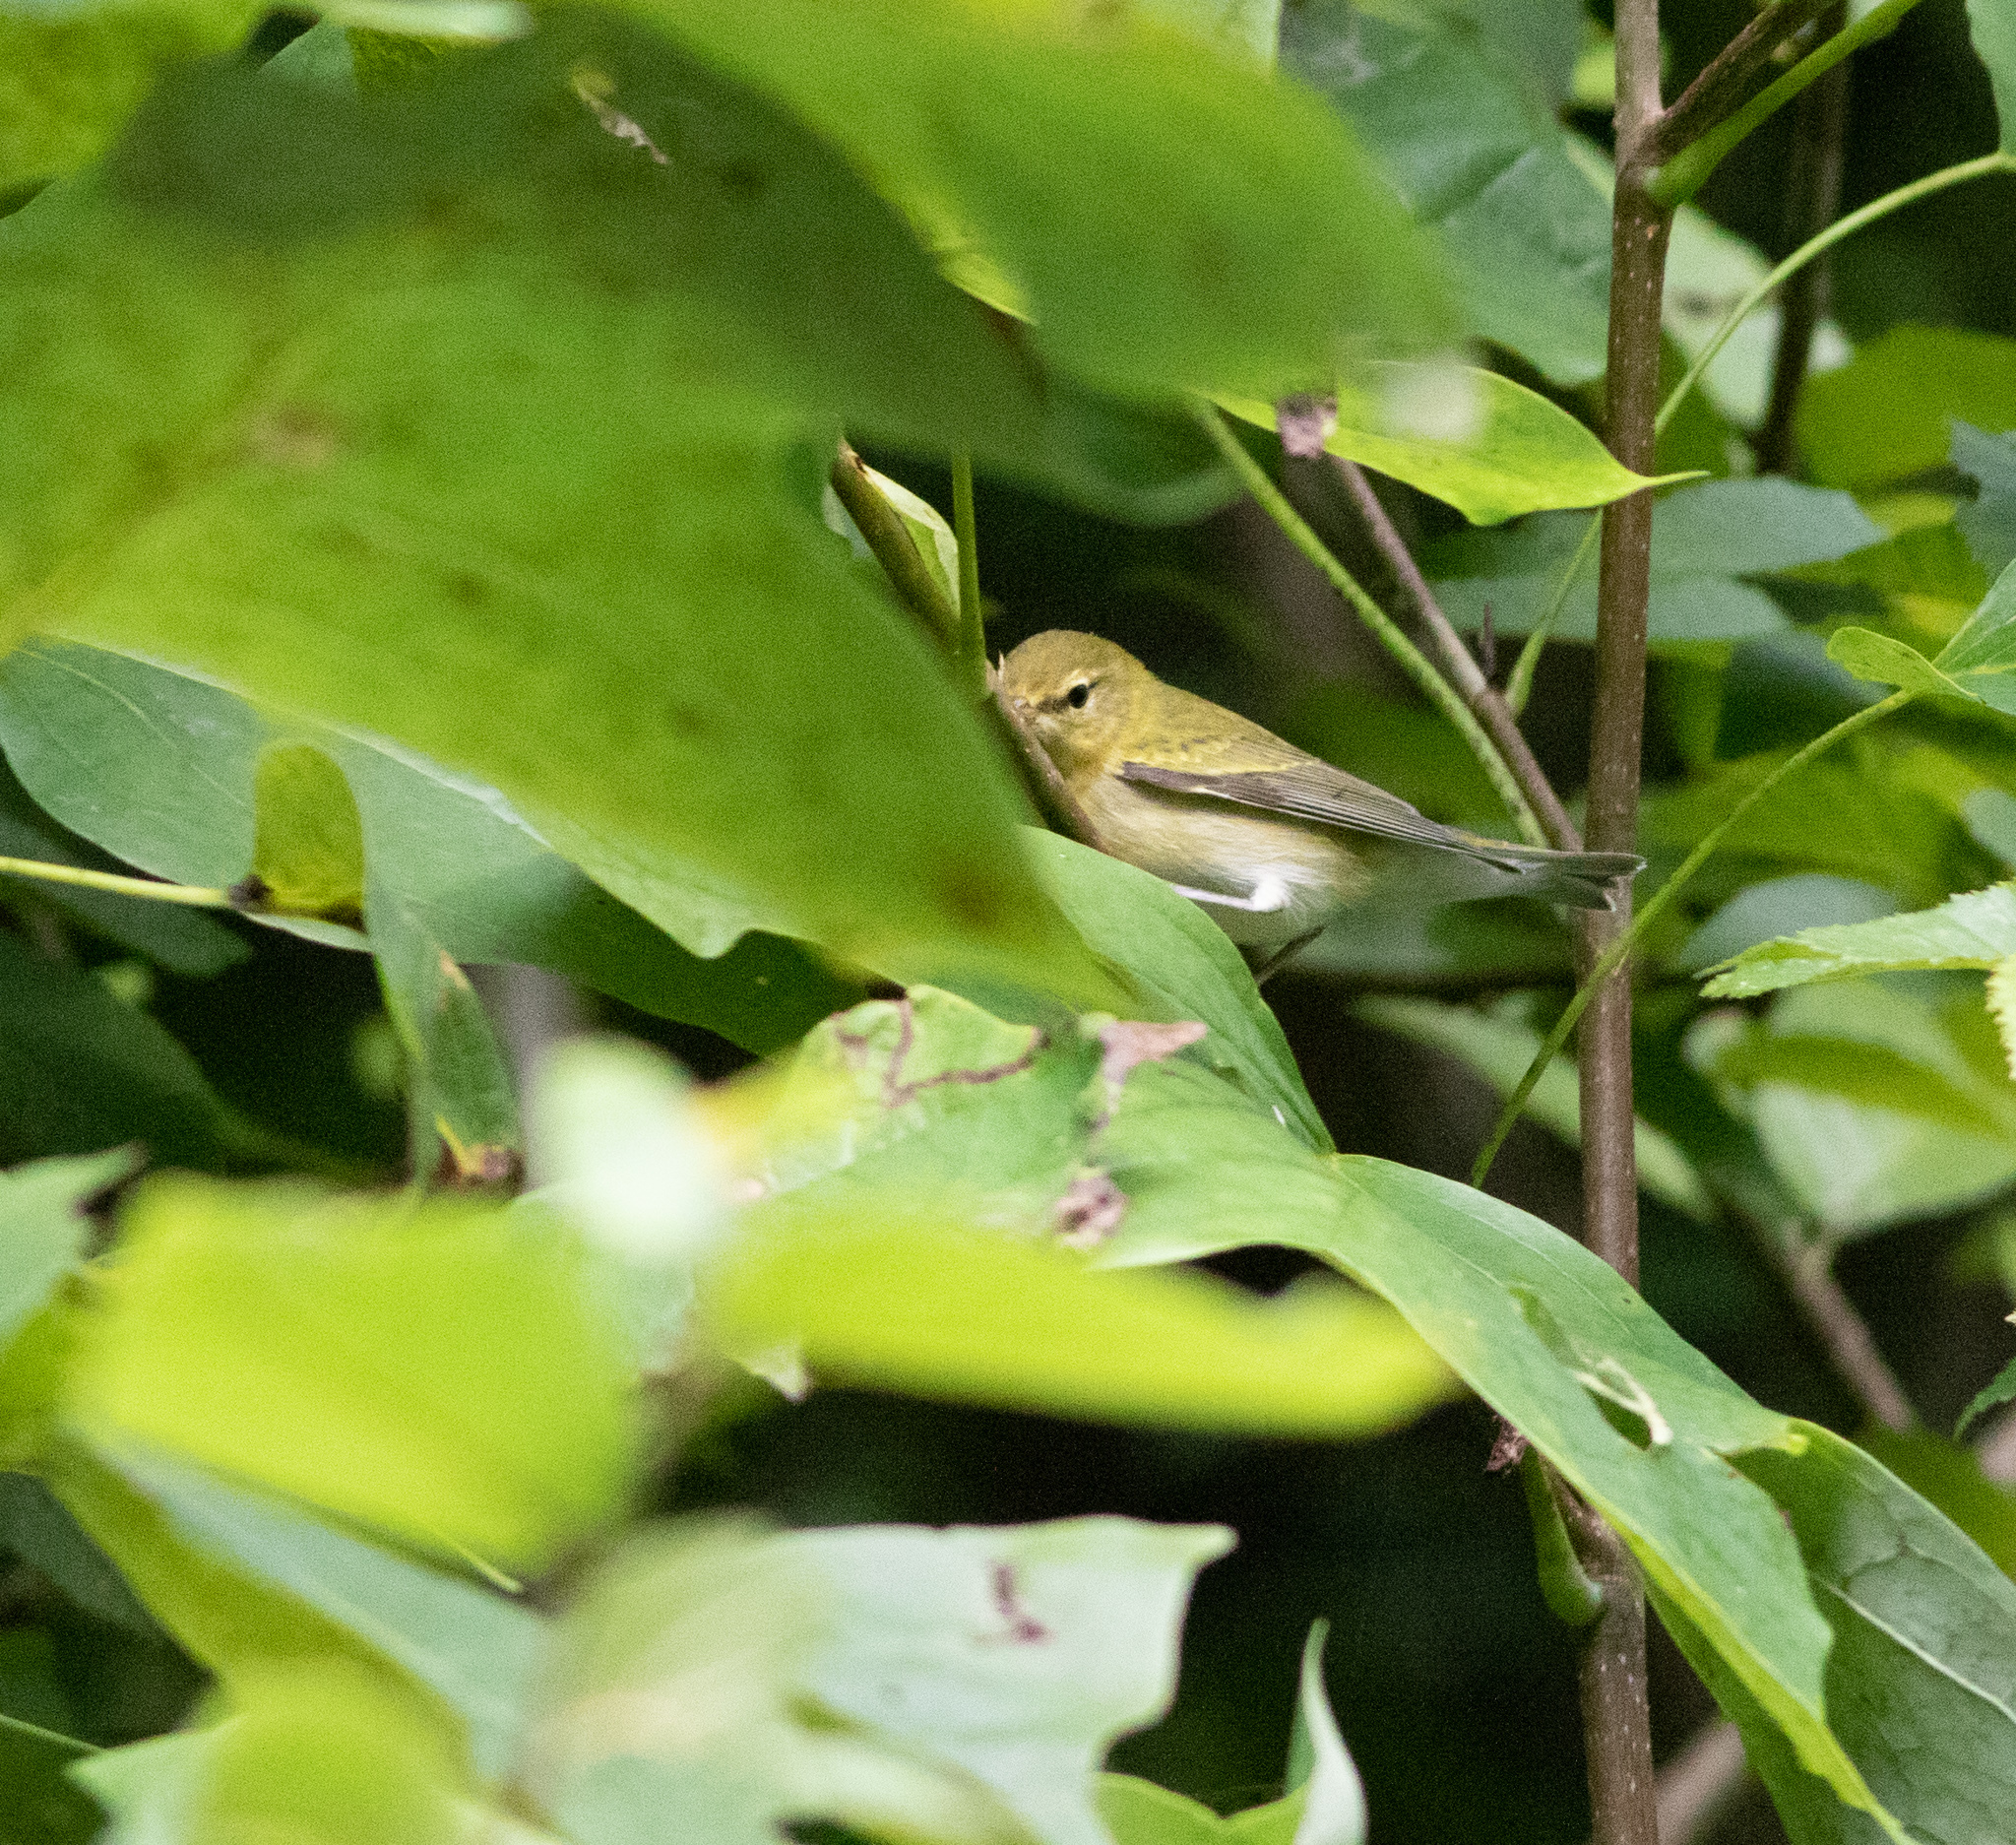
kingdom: Animalia
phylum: Chordata
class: Aves
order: Passeriformes
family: Parulidae
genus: Leiothlypis
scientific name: Leiothlypis peregrina
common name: Tennessee warbler
